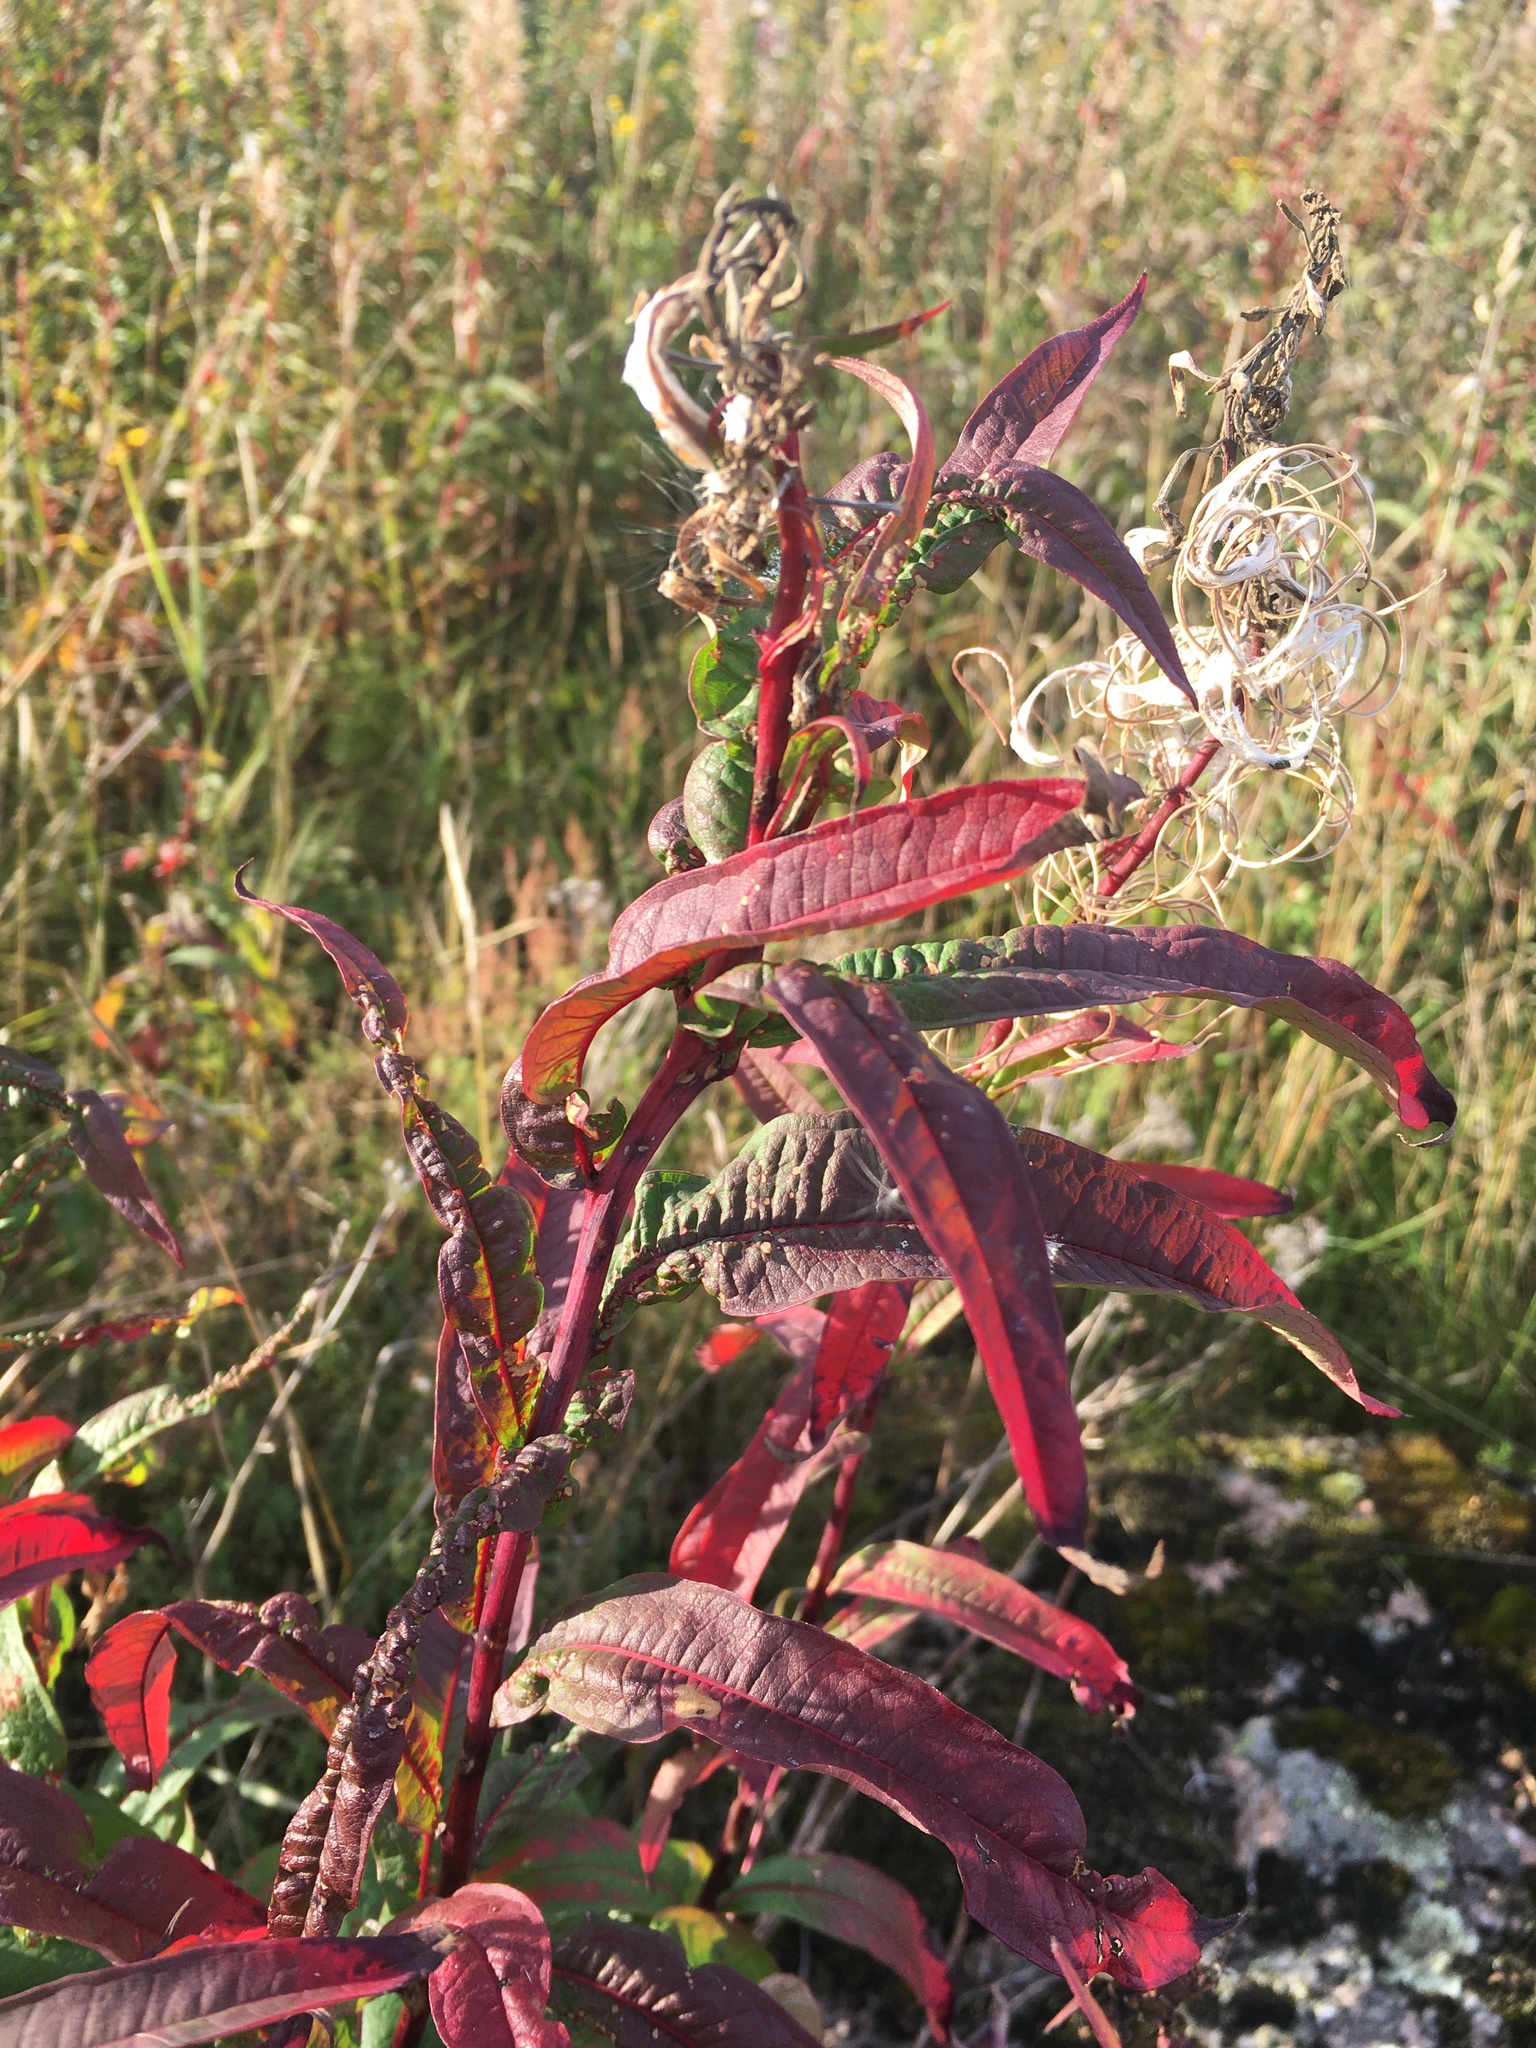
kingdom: Plantae
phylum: Tracheophyta
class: Magnoliopsida
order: Myrtales
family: Onagraceae
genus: Chamaenerion
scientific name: Chamaenerion angustifolium
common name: Fireweed
